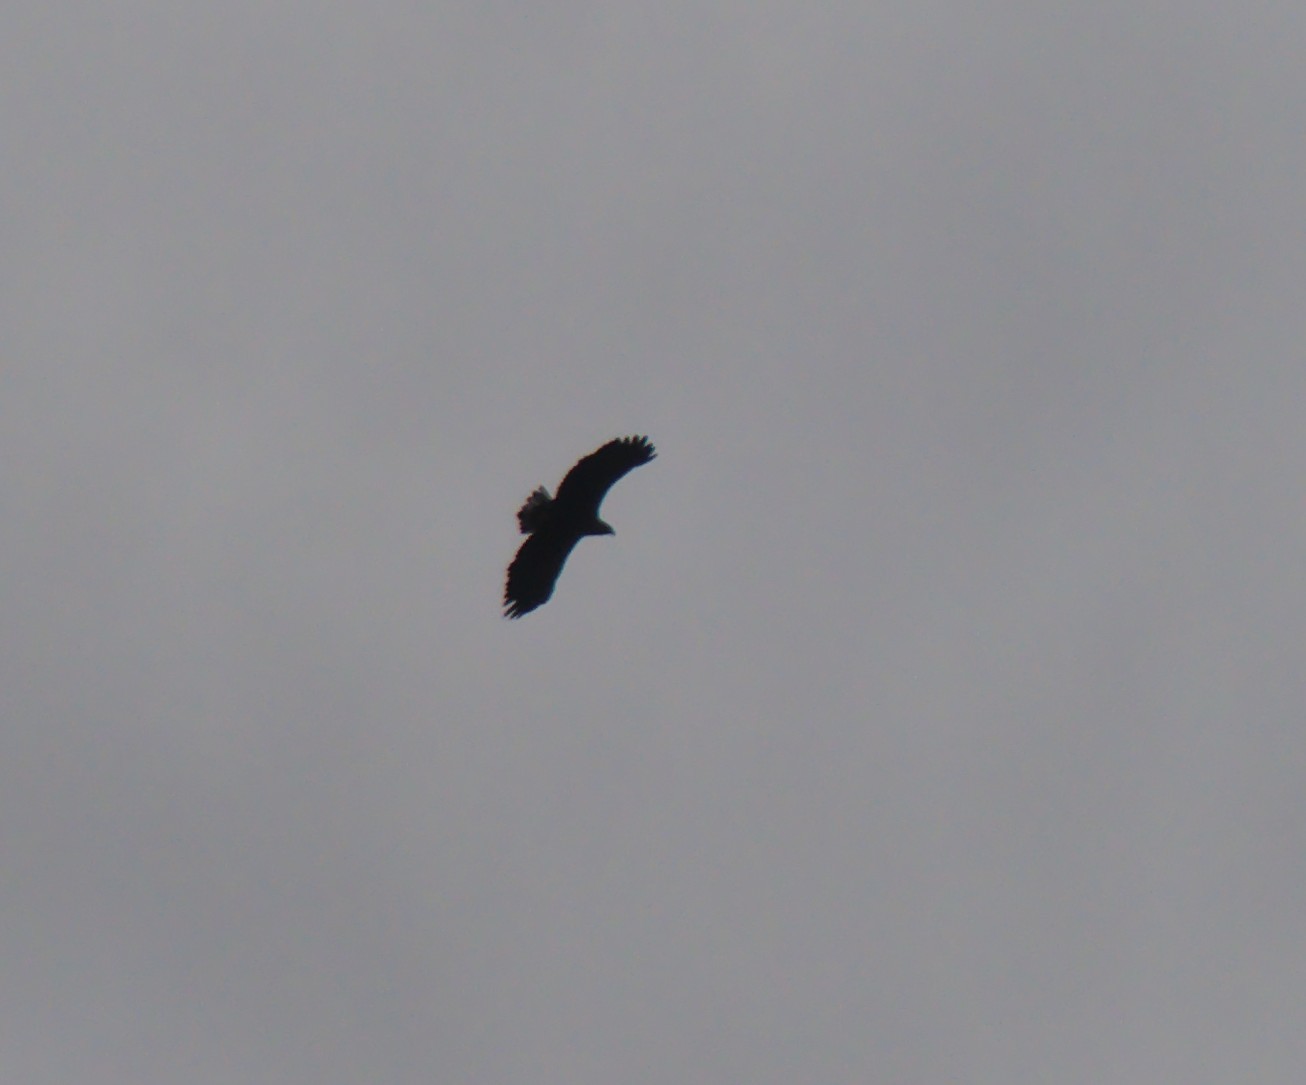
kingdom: Animalia
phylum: Chordata
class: Aves
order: Accipitriformes
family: Accipitridae
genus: Haliaeetus
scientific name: Haliaeetus albicilla
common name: White-tailed eagle
